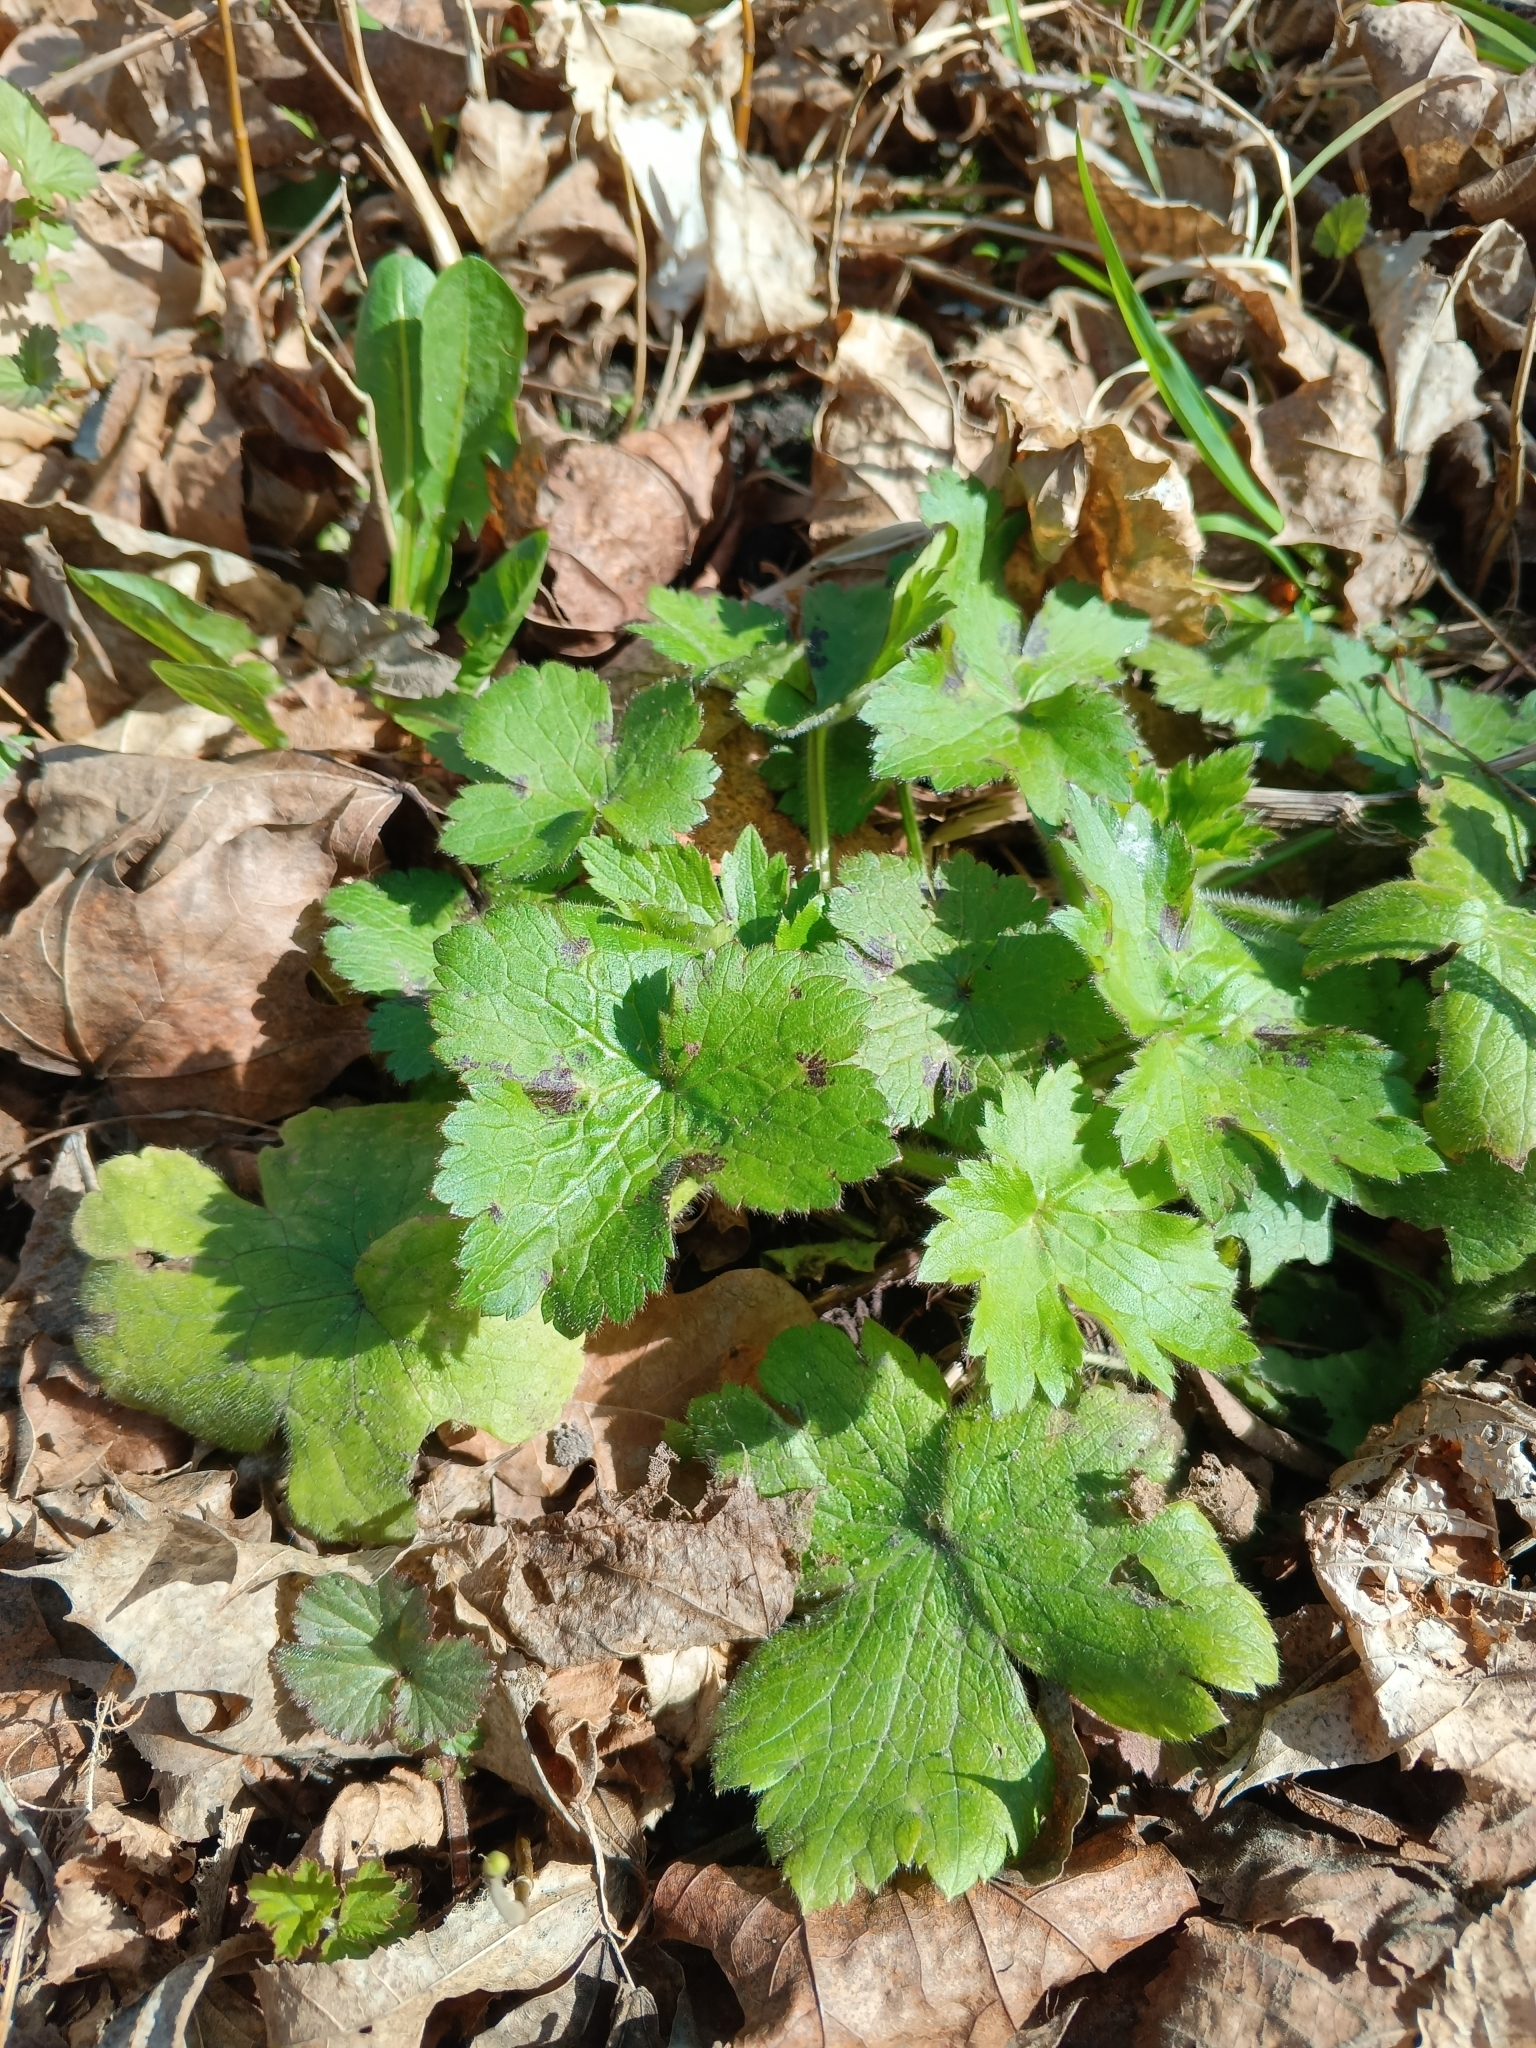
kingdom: Plantae
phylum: Tracheophyta
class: Magnoliopsida
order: Ranunculales
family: Ranunculaceae
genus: Ranunculus
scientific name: Ranunculus lanuginosus
